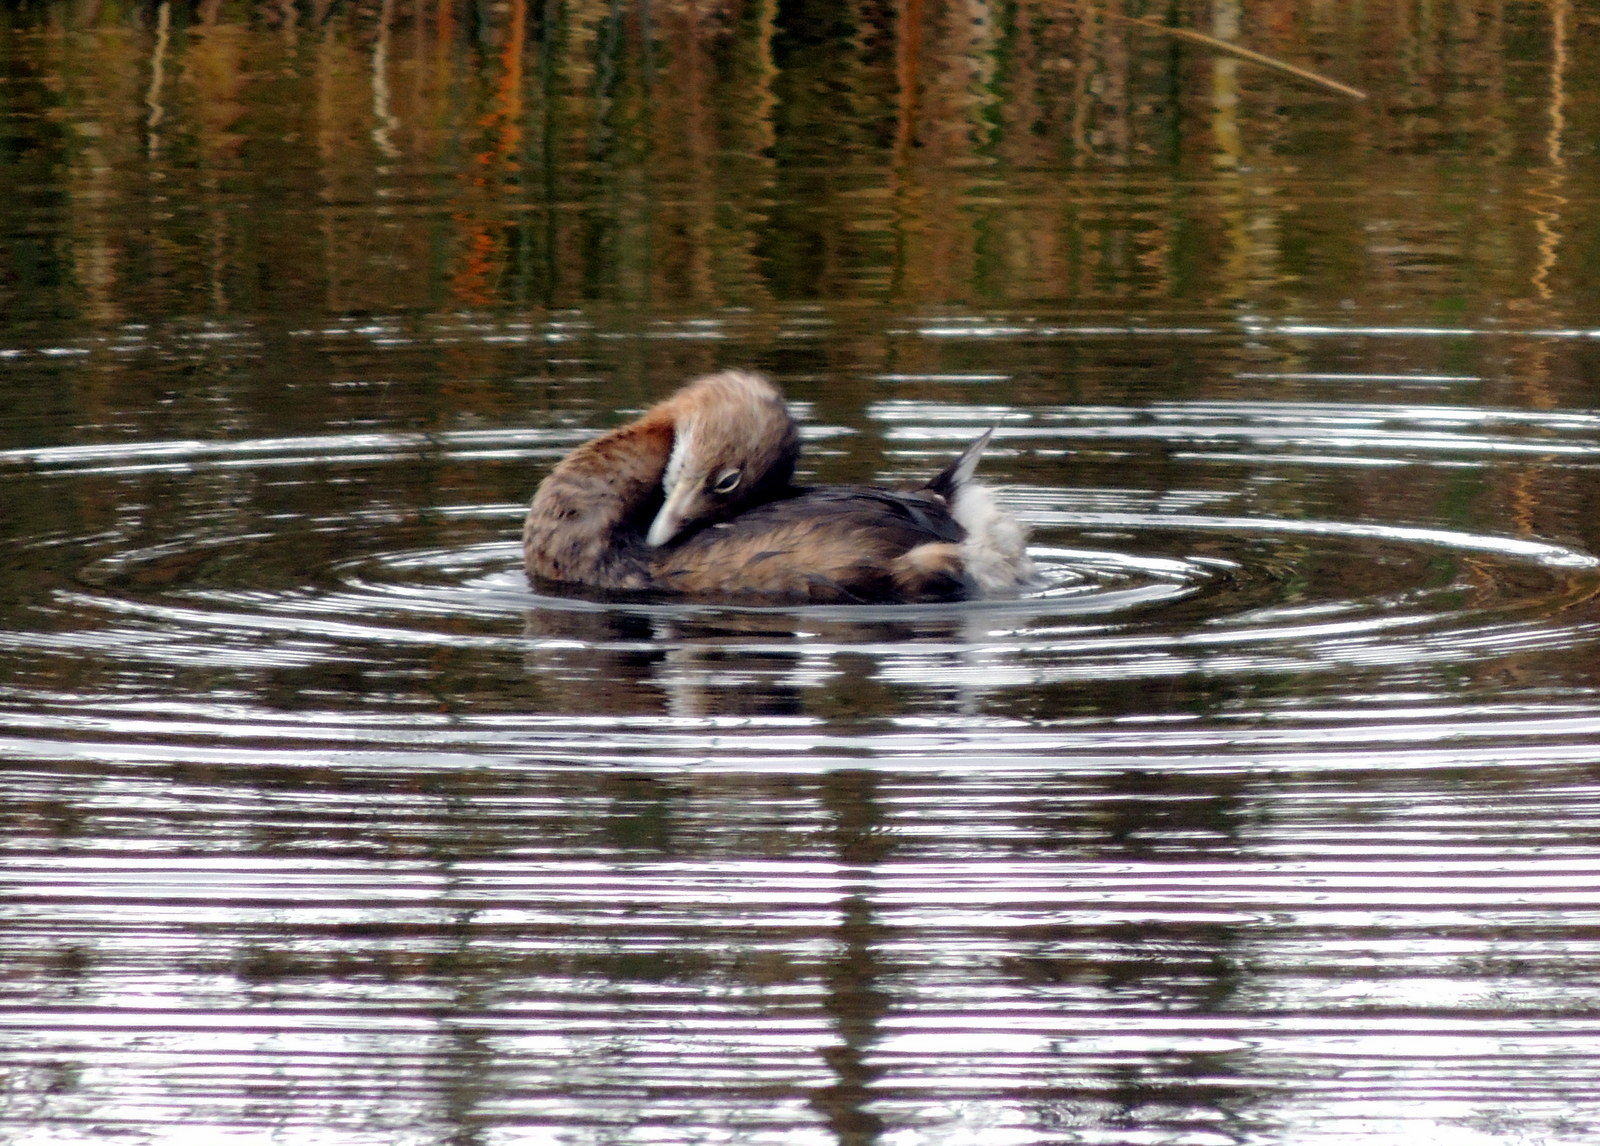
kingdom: Animalia
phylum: Chordata
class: Aves
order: Podicipediformes
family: Podicipedidae
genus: Podilymbus
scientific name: Podilymbus podiceps
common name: Pied-billed grebe
